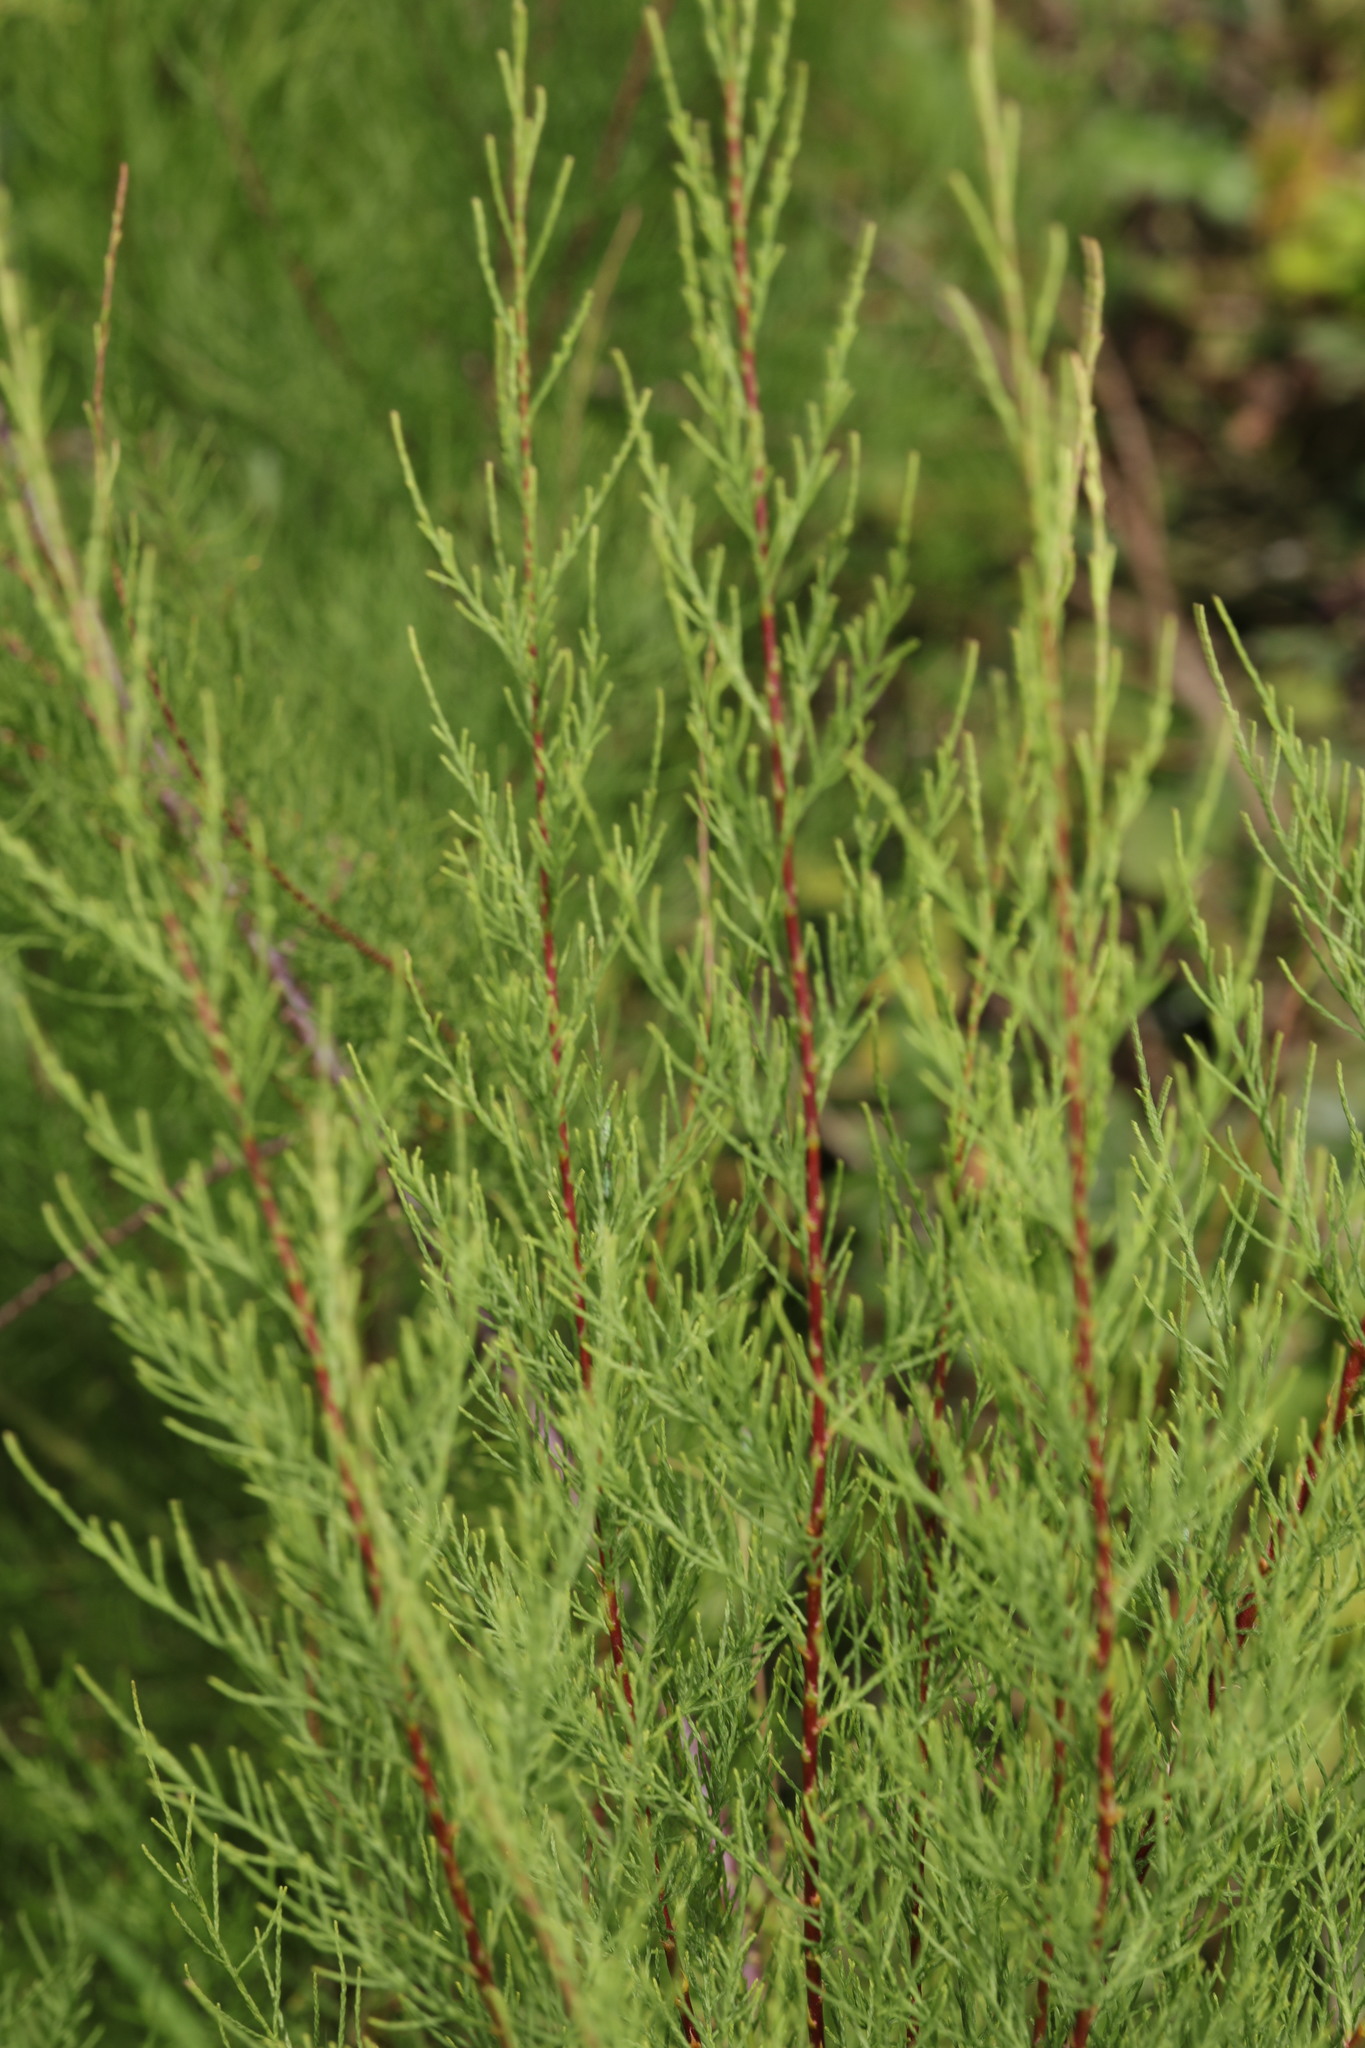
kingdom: Plantae
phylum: Tracheophyta
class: Magnoliopsida
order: Caryophyllales
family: Tamaricaceae
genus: Tamarix
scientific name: Tamarix gallica
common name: Tamarisk
